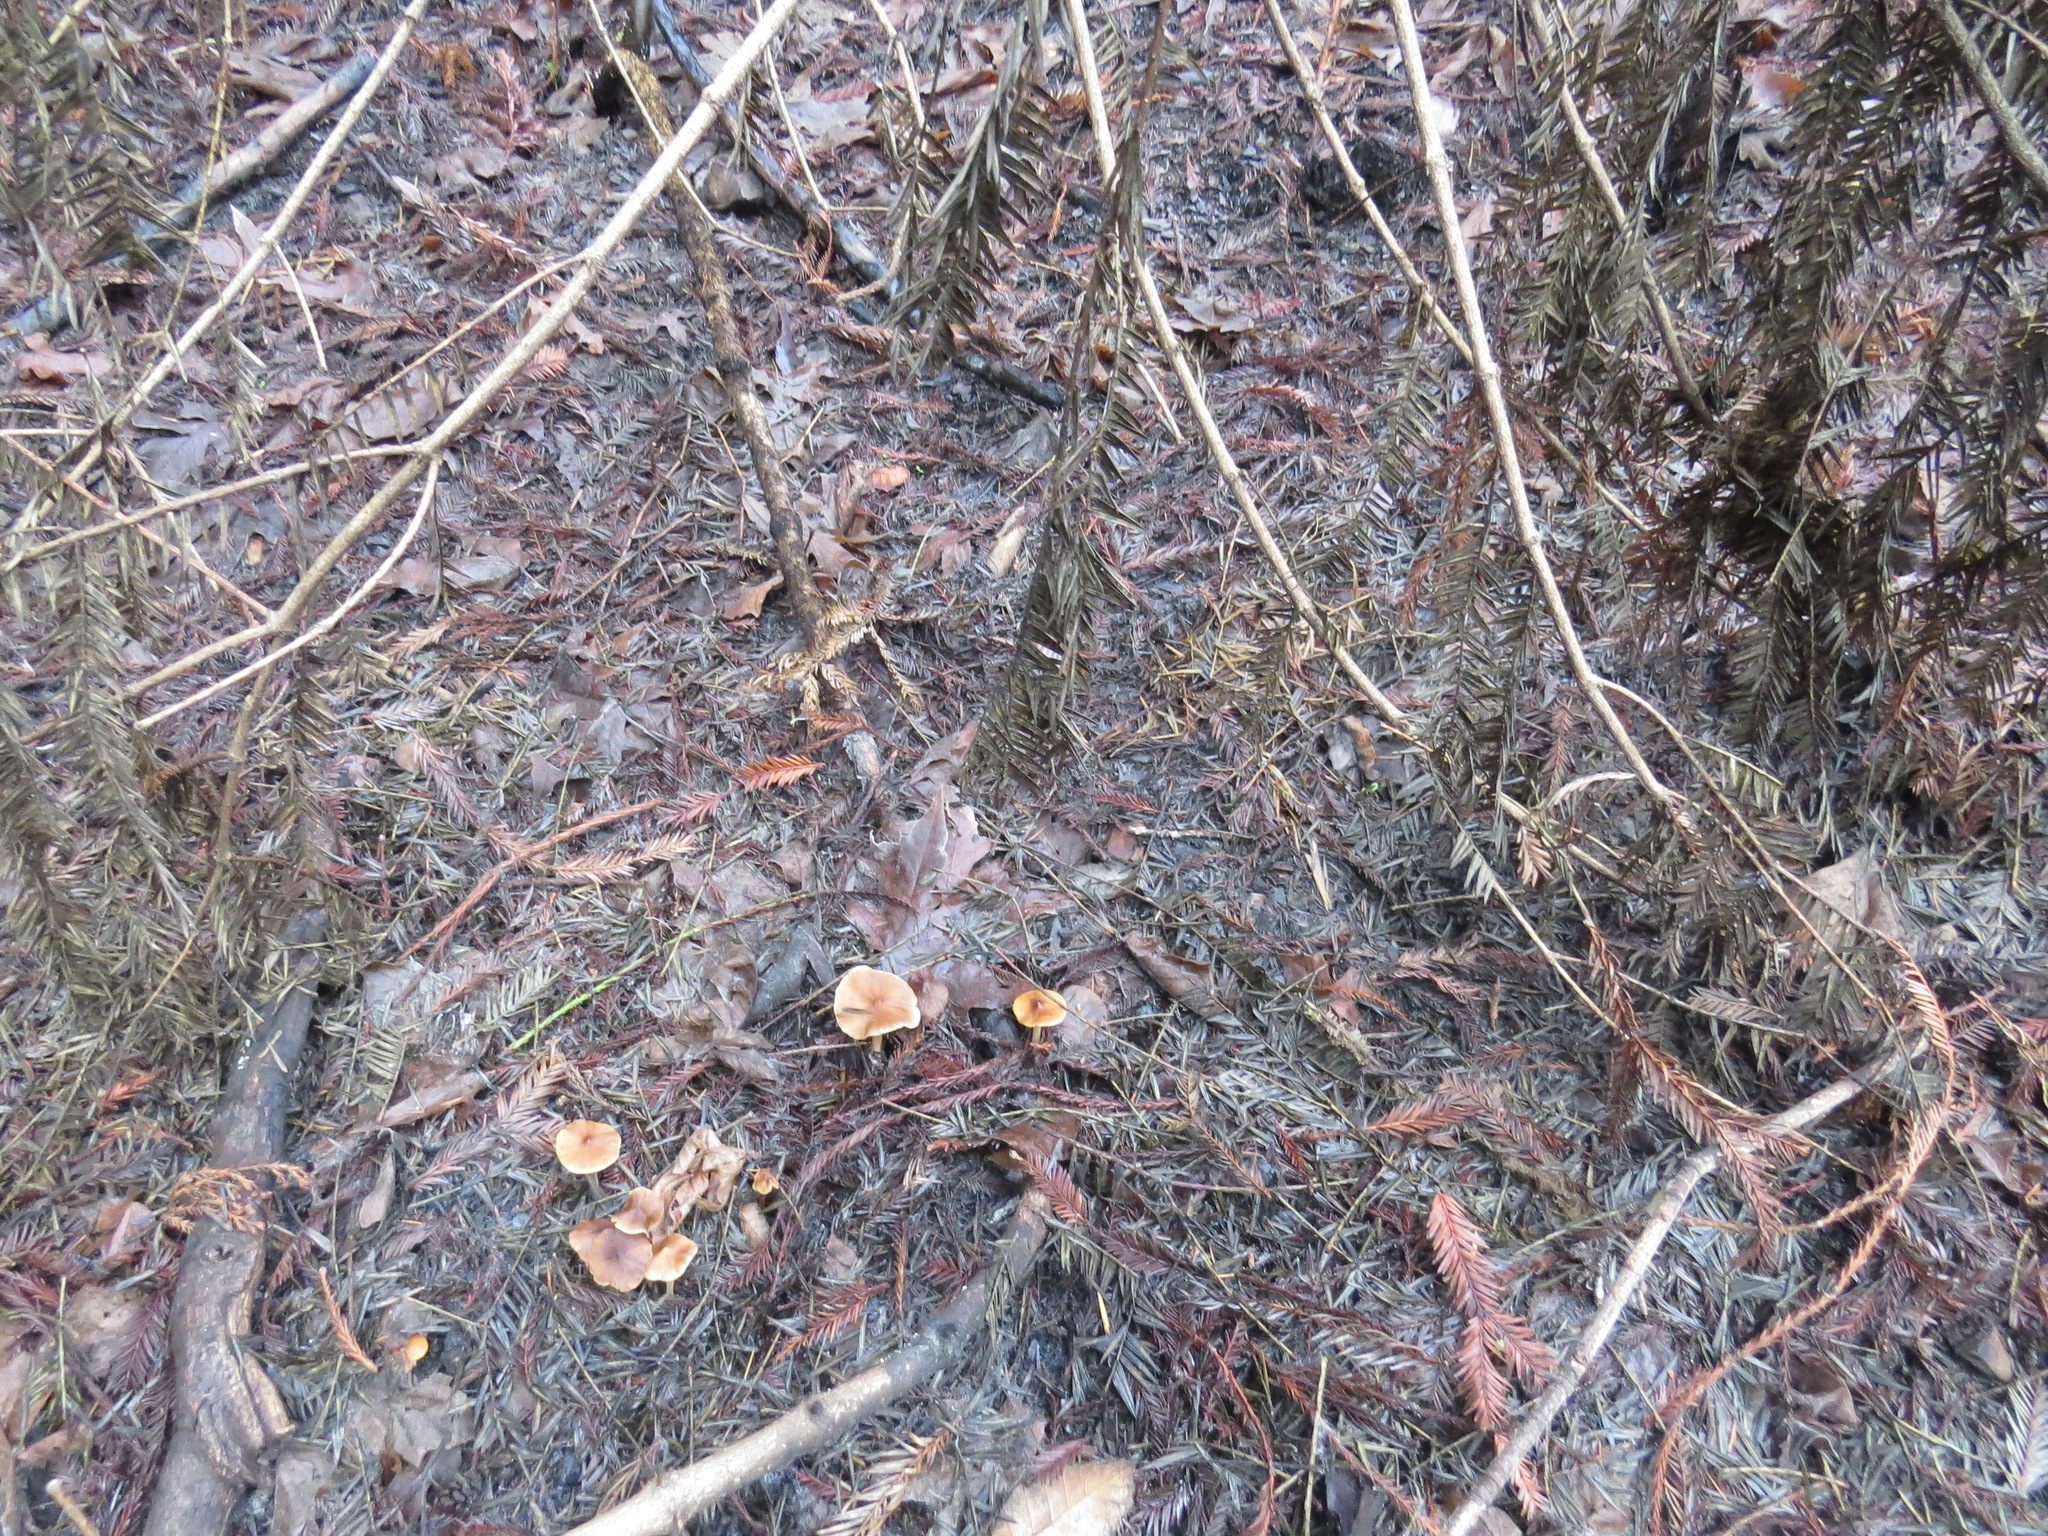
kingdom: Fungi
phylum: Basidiomycota
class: Agaricomycetes
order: Agaricales
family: Tricholomataceae
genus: Caulorhiza
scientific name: Caulorhiza umbonata
